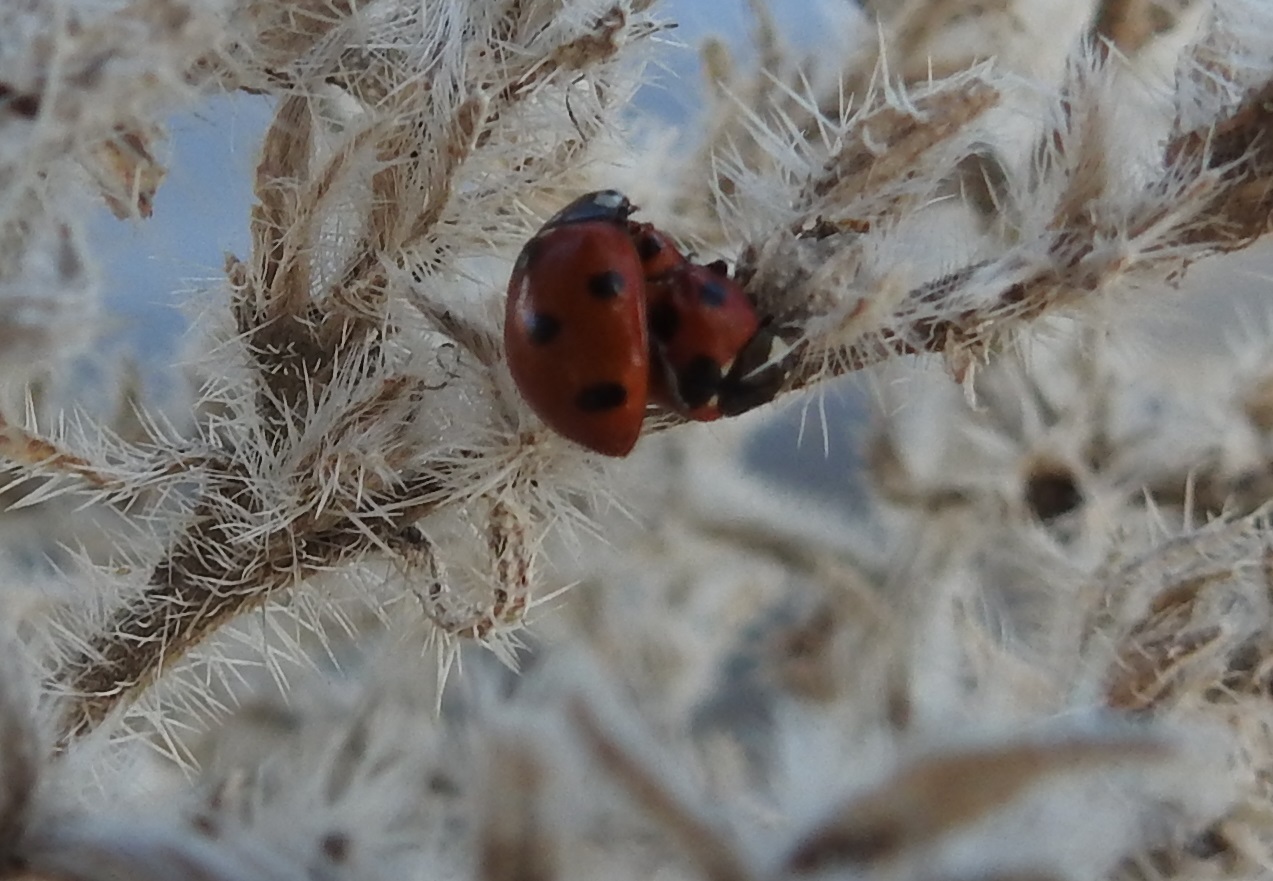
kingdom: Animalia
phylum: Arthropoda
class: Insecta
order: Coleoptera
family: Coccinellidae
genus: Coccinella
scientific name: Coccinella algerica
